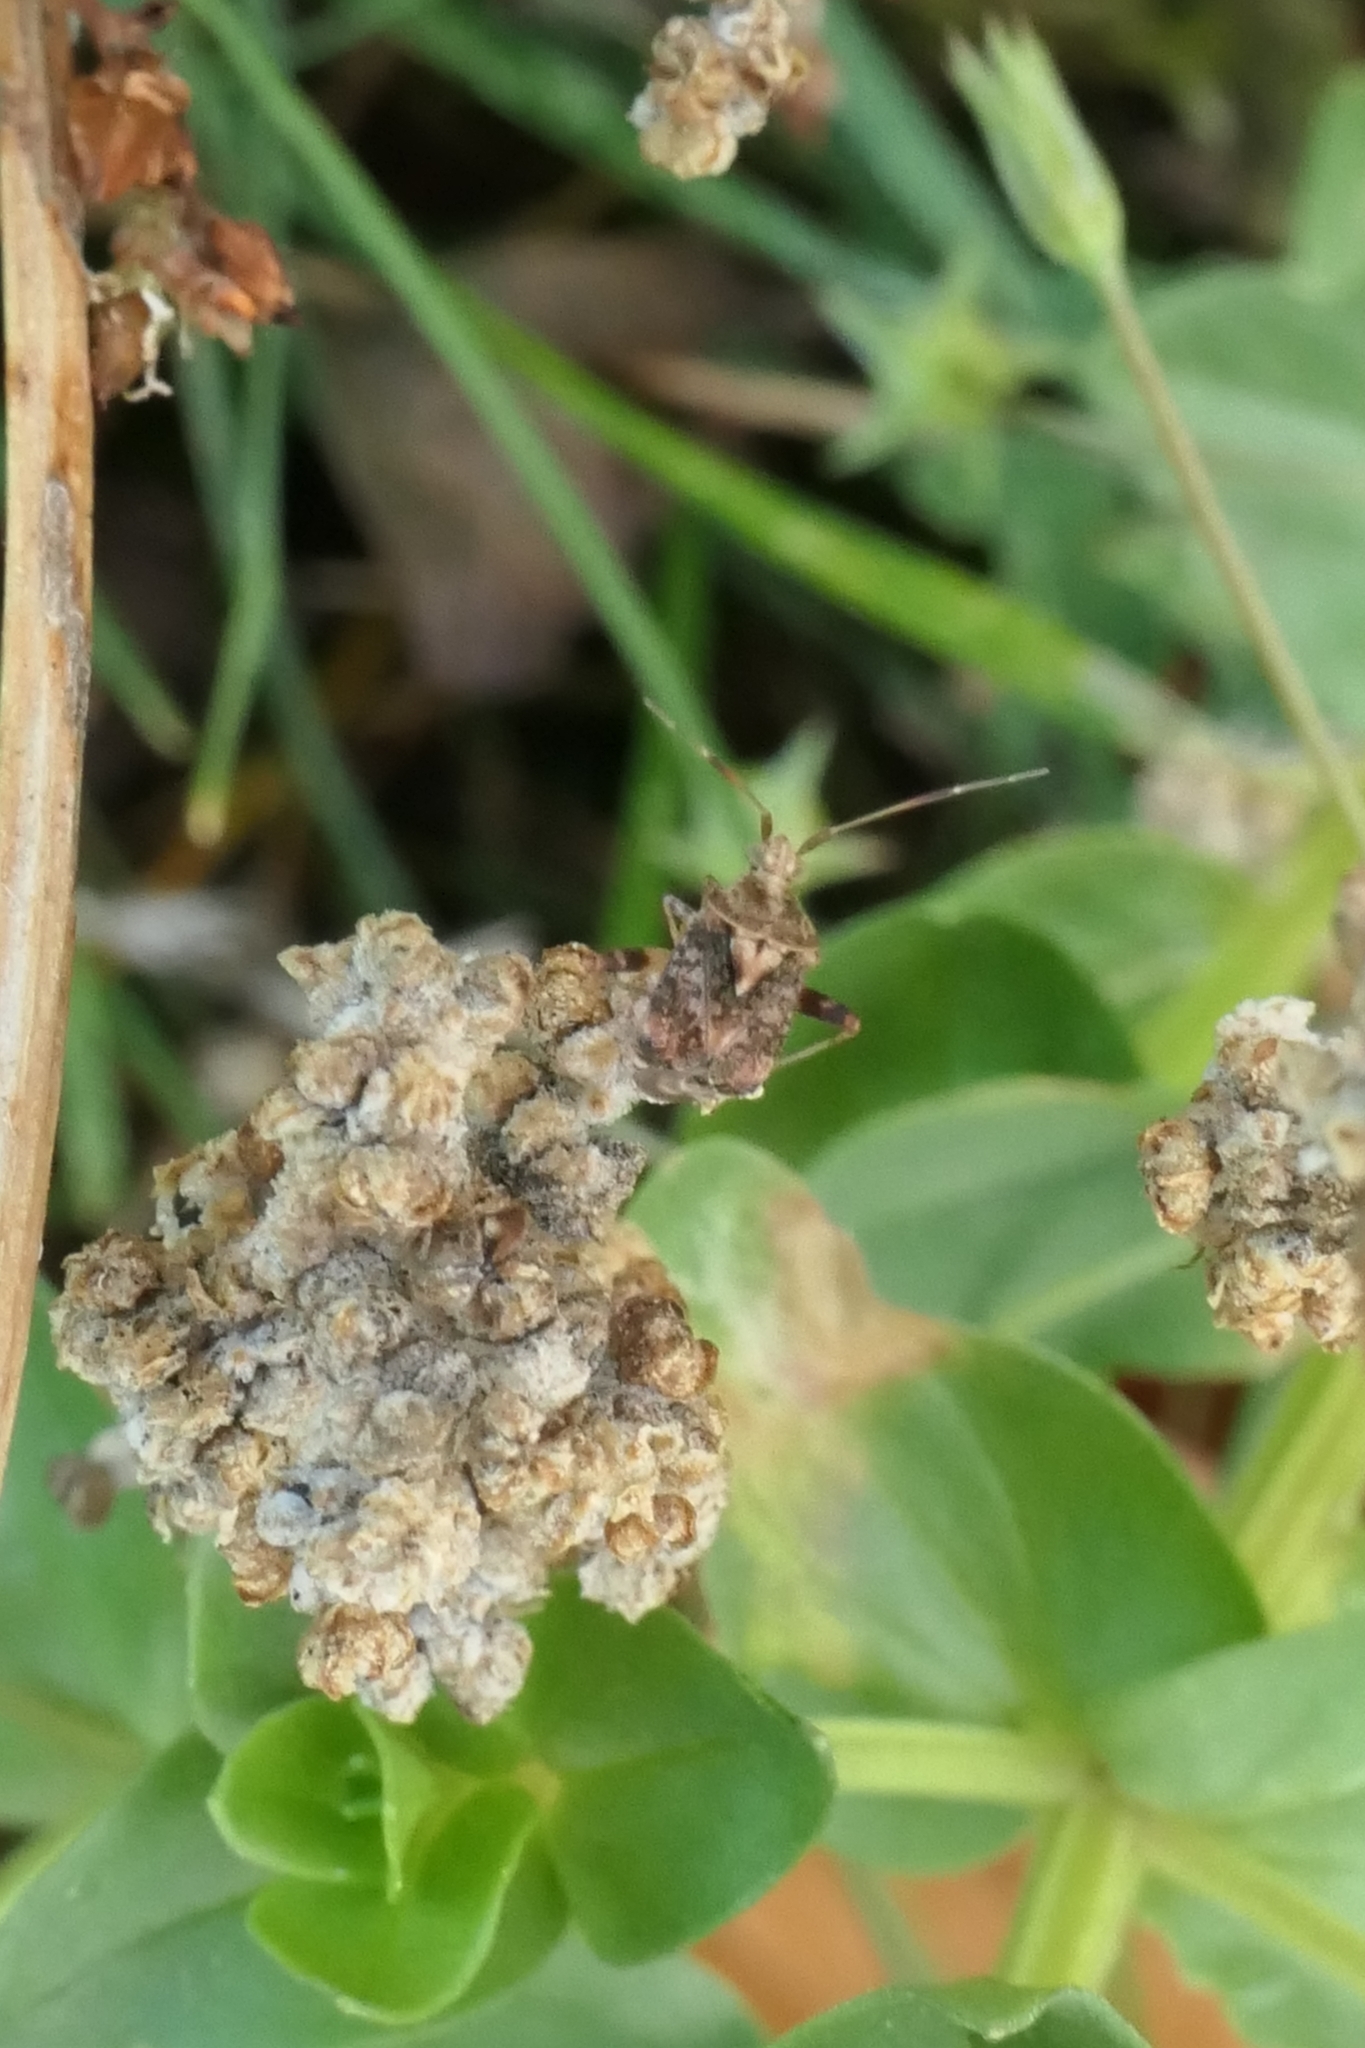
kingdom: Animalia
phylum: Arthropoda
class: Insecta
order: Hemiptera
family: Miridae
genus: Sidnia
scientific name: Sidnia kinbergi
